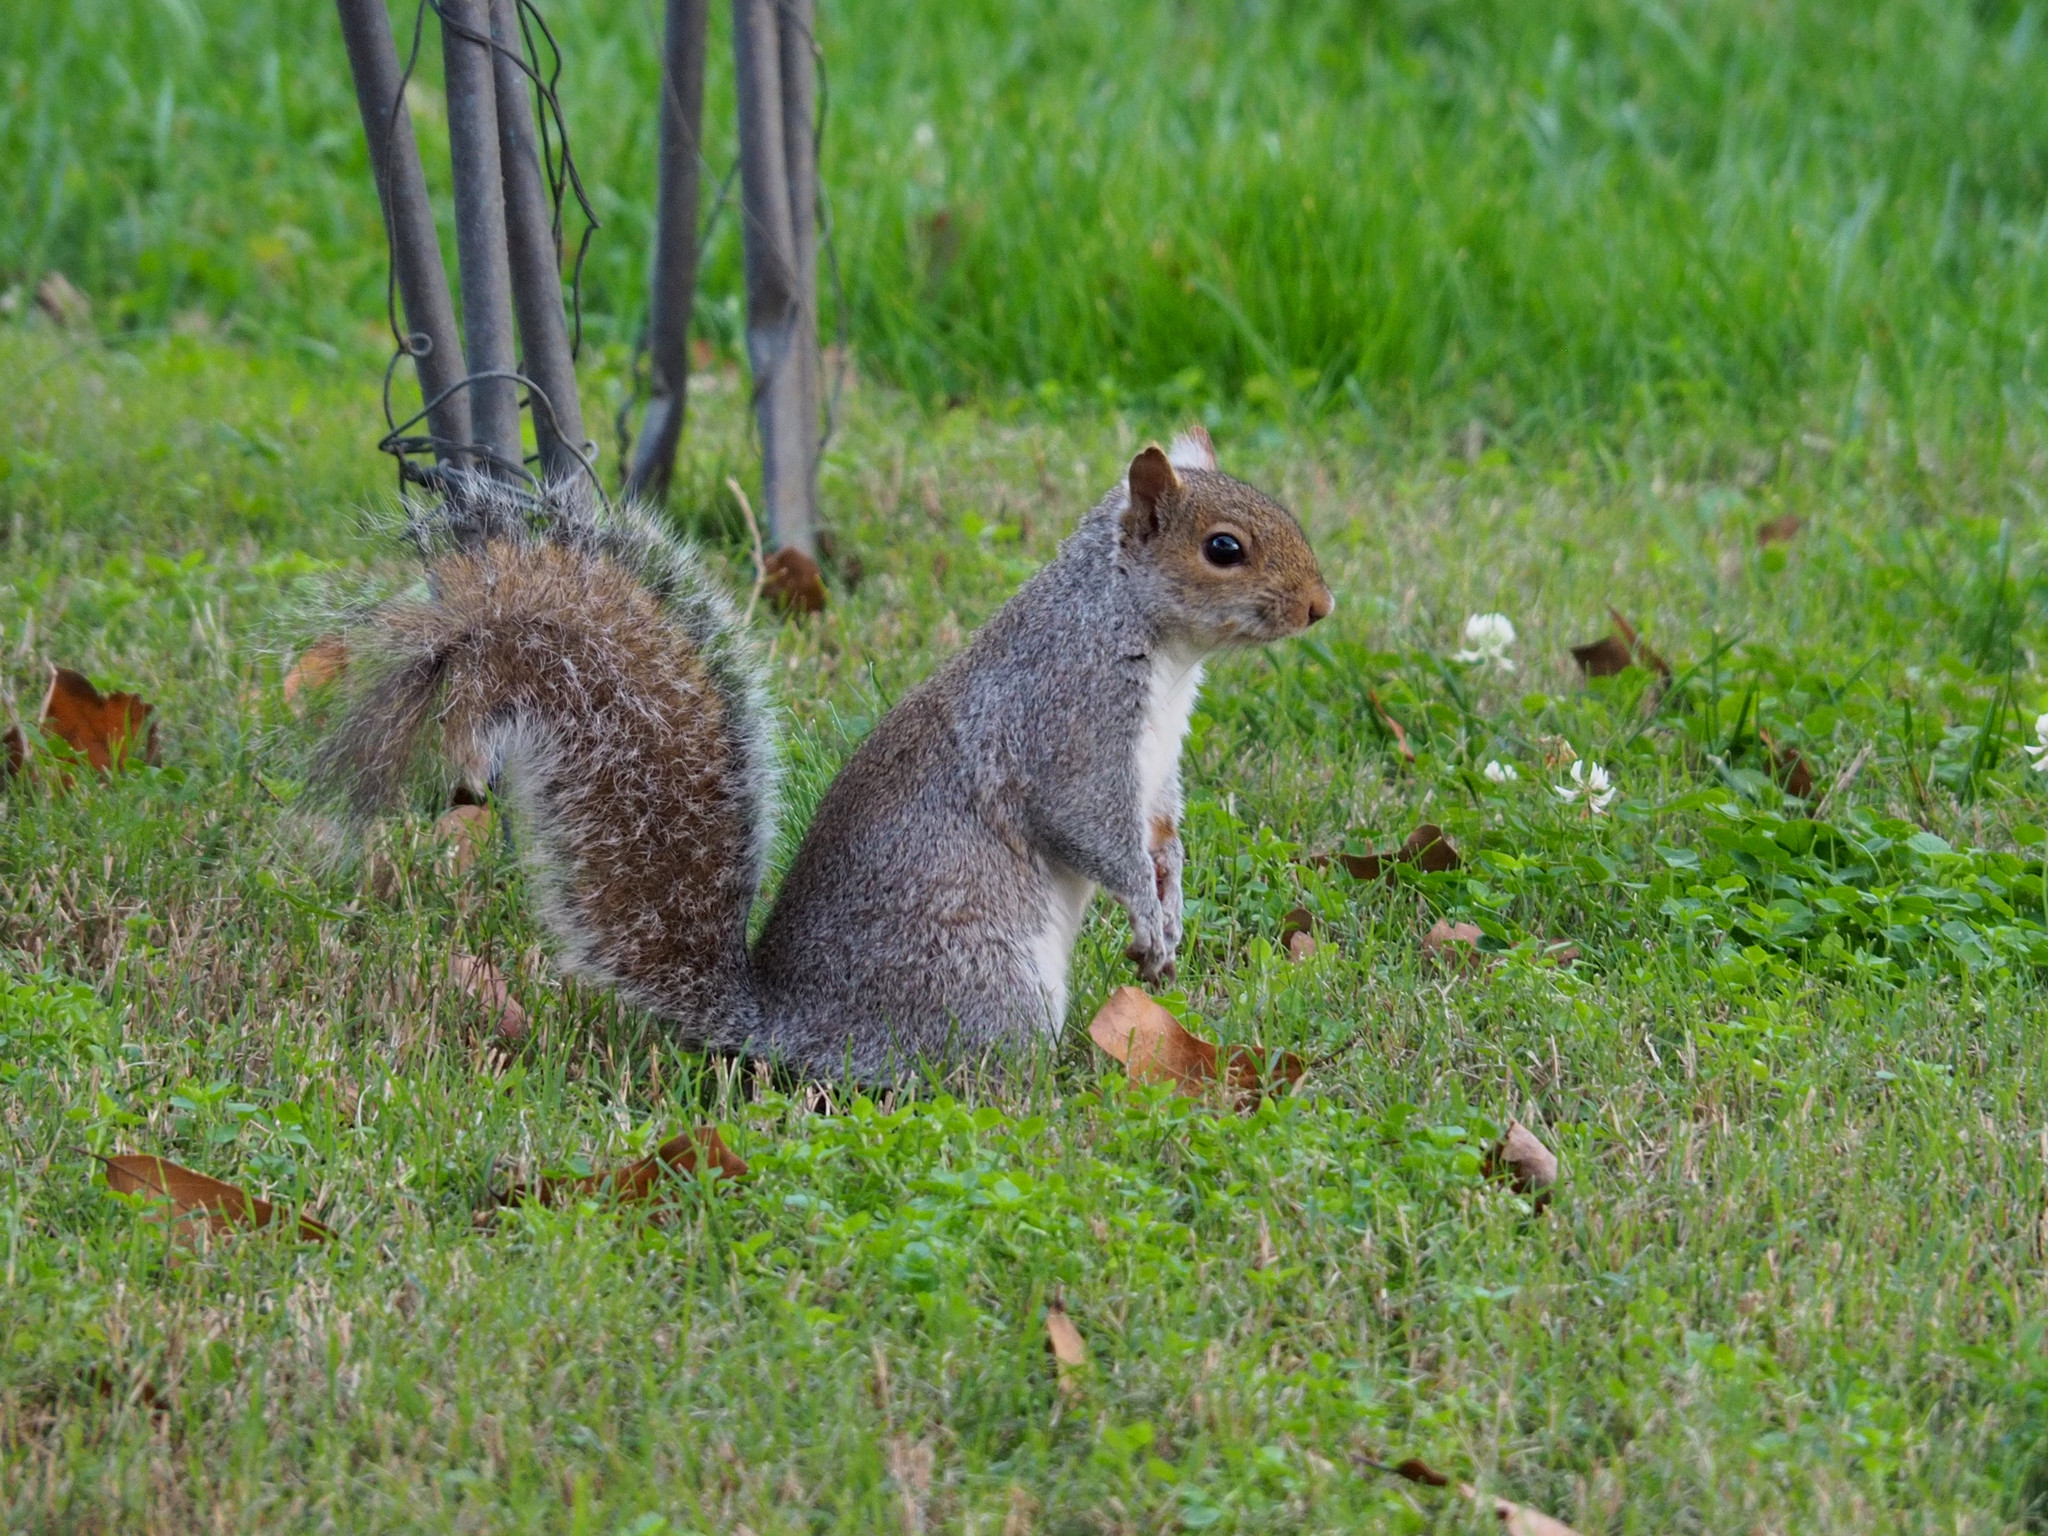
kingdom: Animalia
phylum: Chordata
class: Mammalia
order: Rodentia
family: Sciuridae
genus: Sciurus
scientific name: Sciurus carolinensis
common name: Eastern gray squirrel
